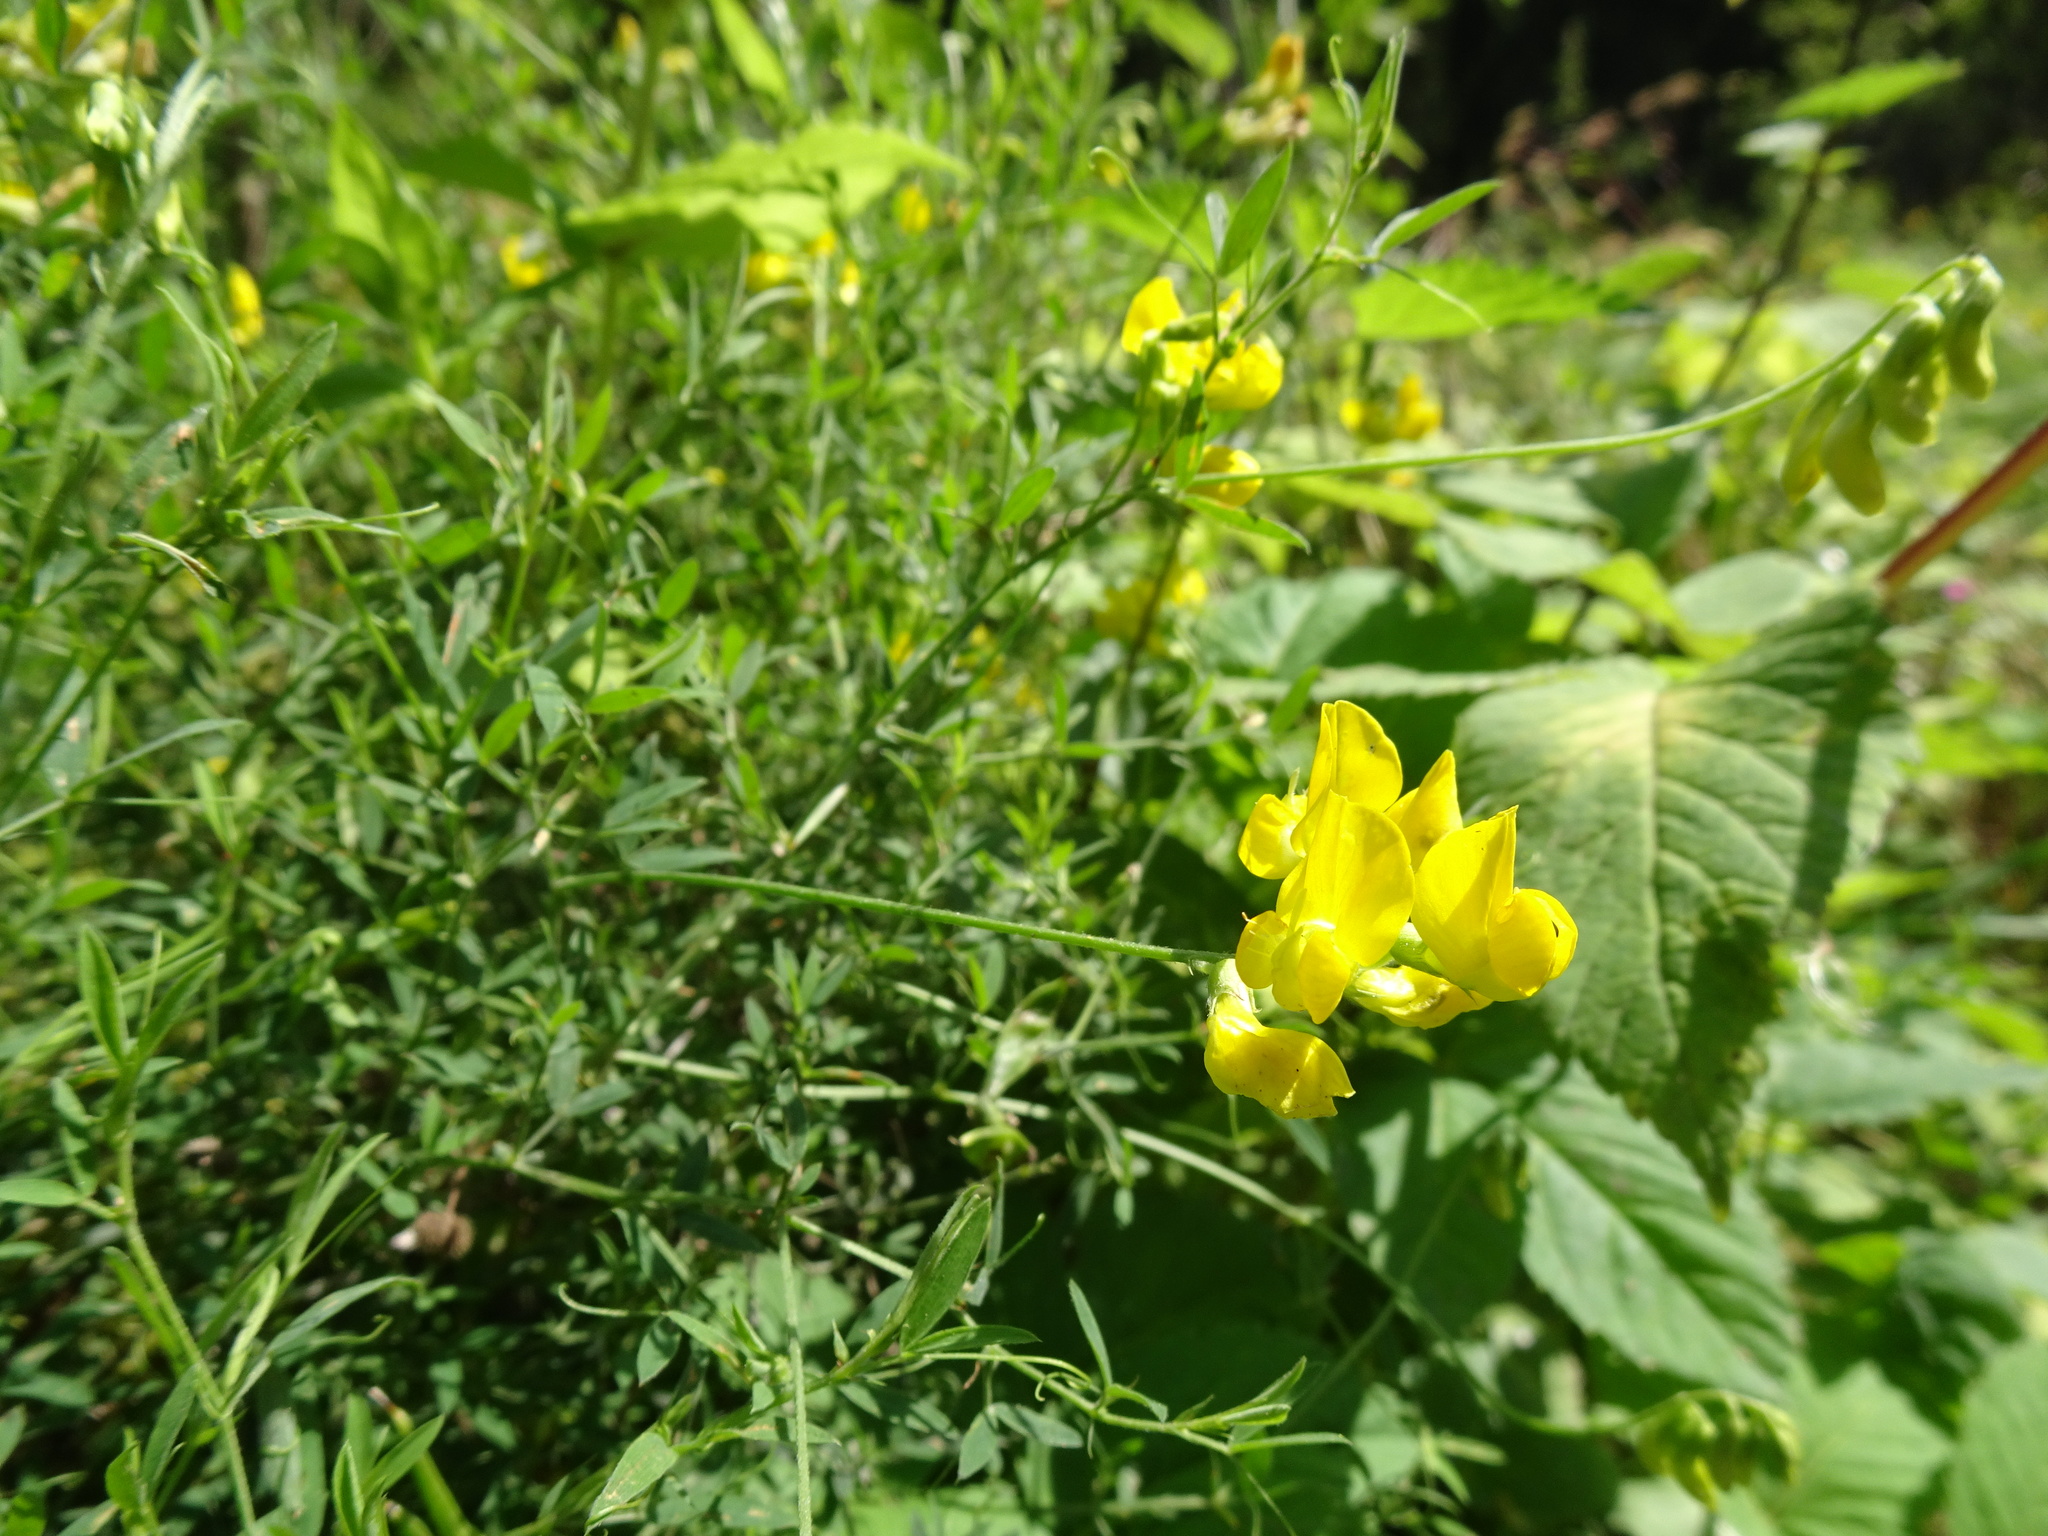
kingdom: Plantae
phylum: Tracheophyta
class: Magnoliopsida
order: Fabales
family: Fabaceae
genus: Lathyrus
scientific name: Lathyrus pratensis
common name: Meadow vetchling
